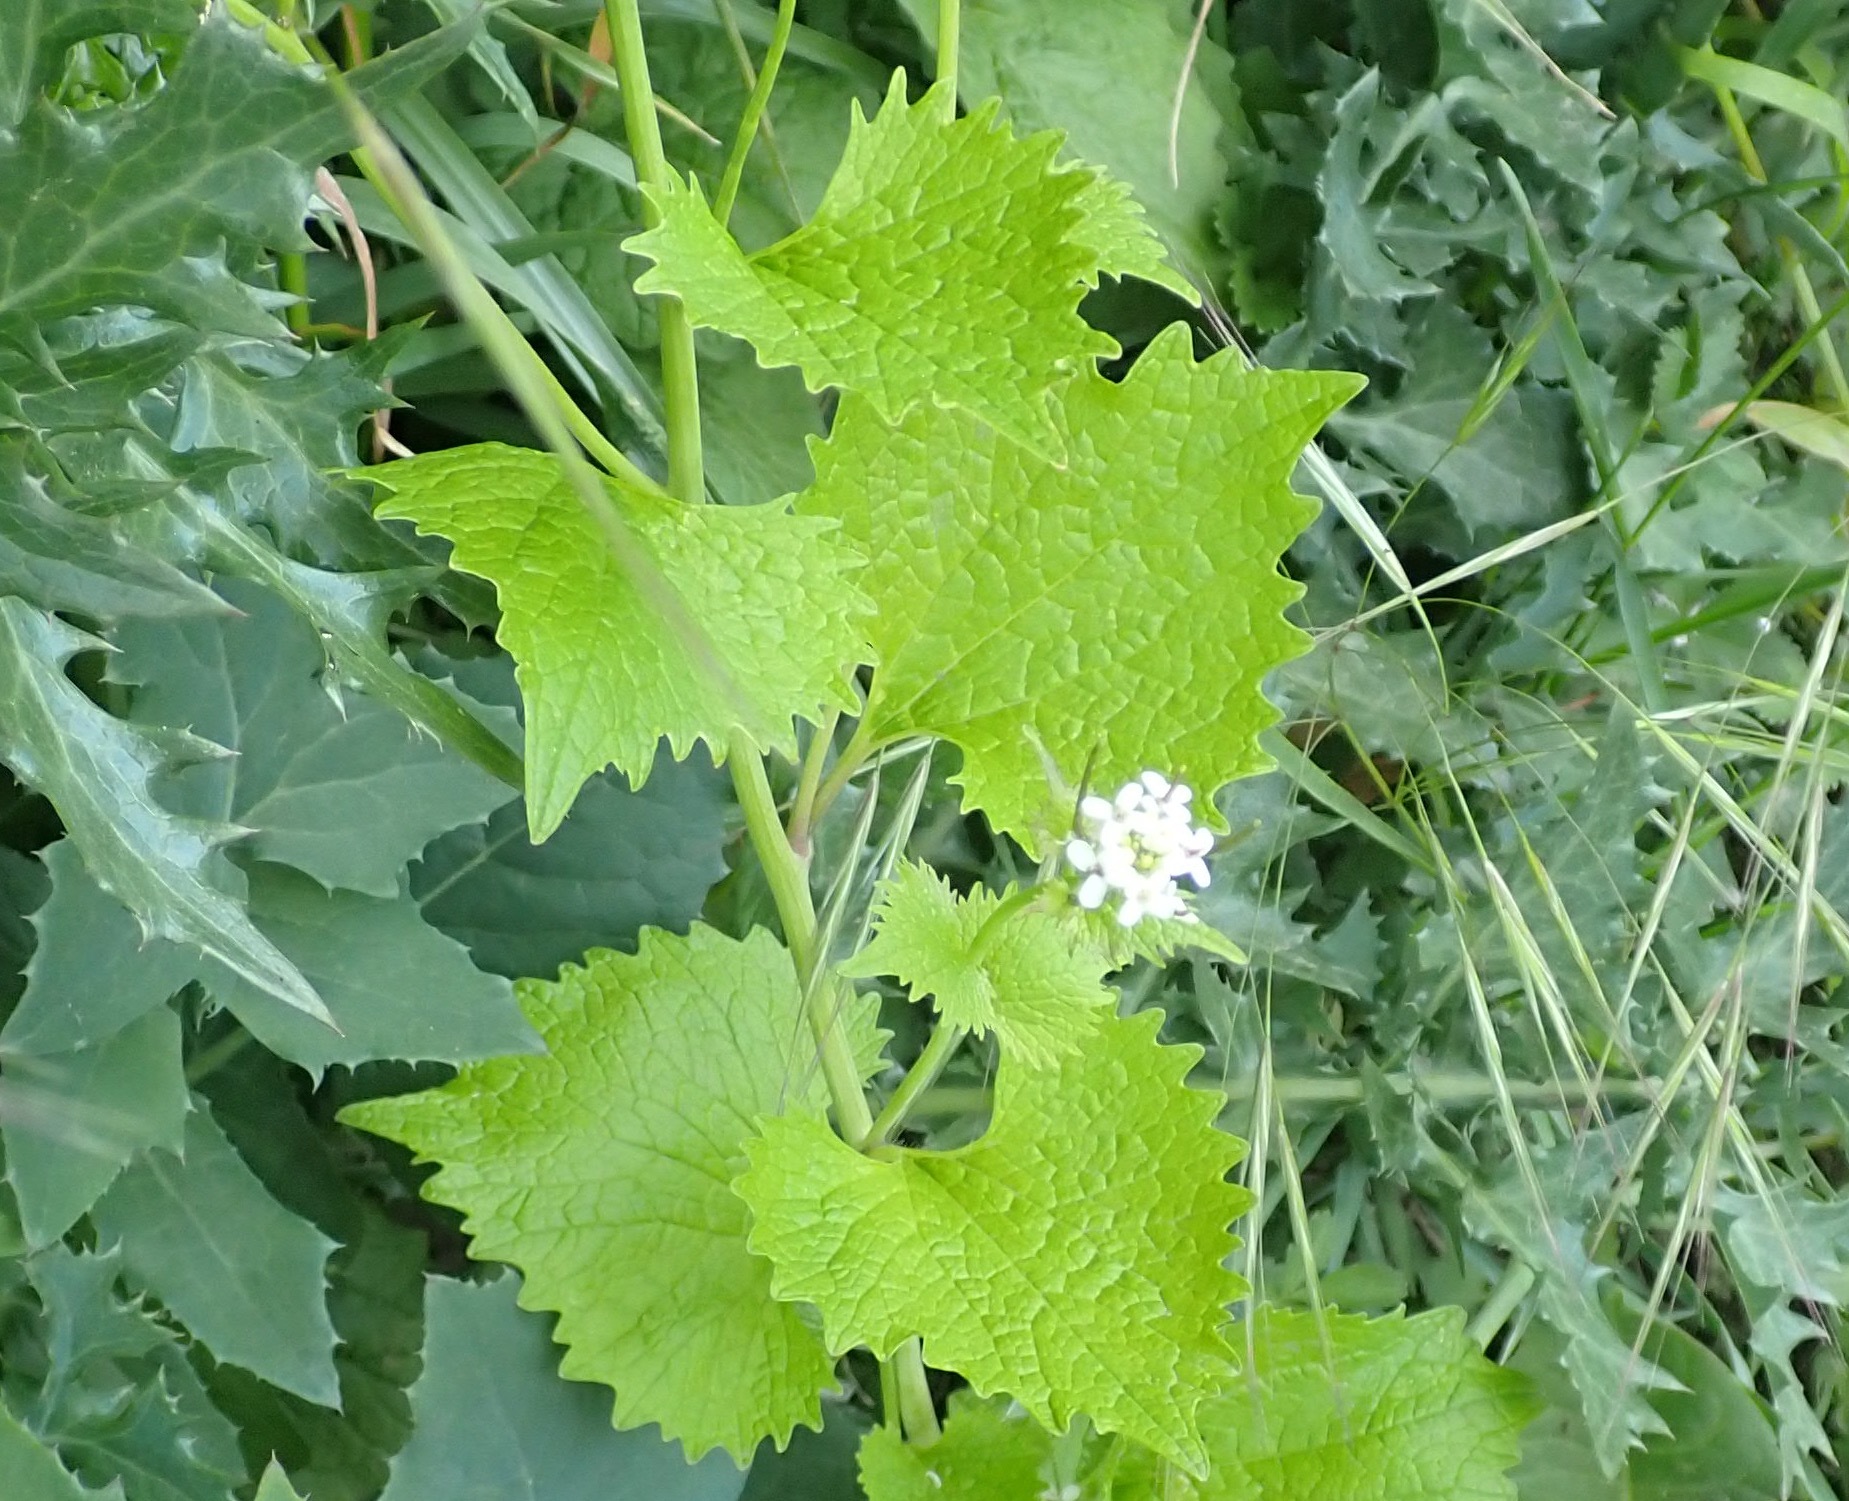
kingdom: Plantae
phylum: Tracheophyta
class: Magnoliopsida
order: Brassicales
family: Brassicaceae
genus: Alliaria
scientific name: Alliaria petiolata
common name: Garlic mustard
